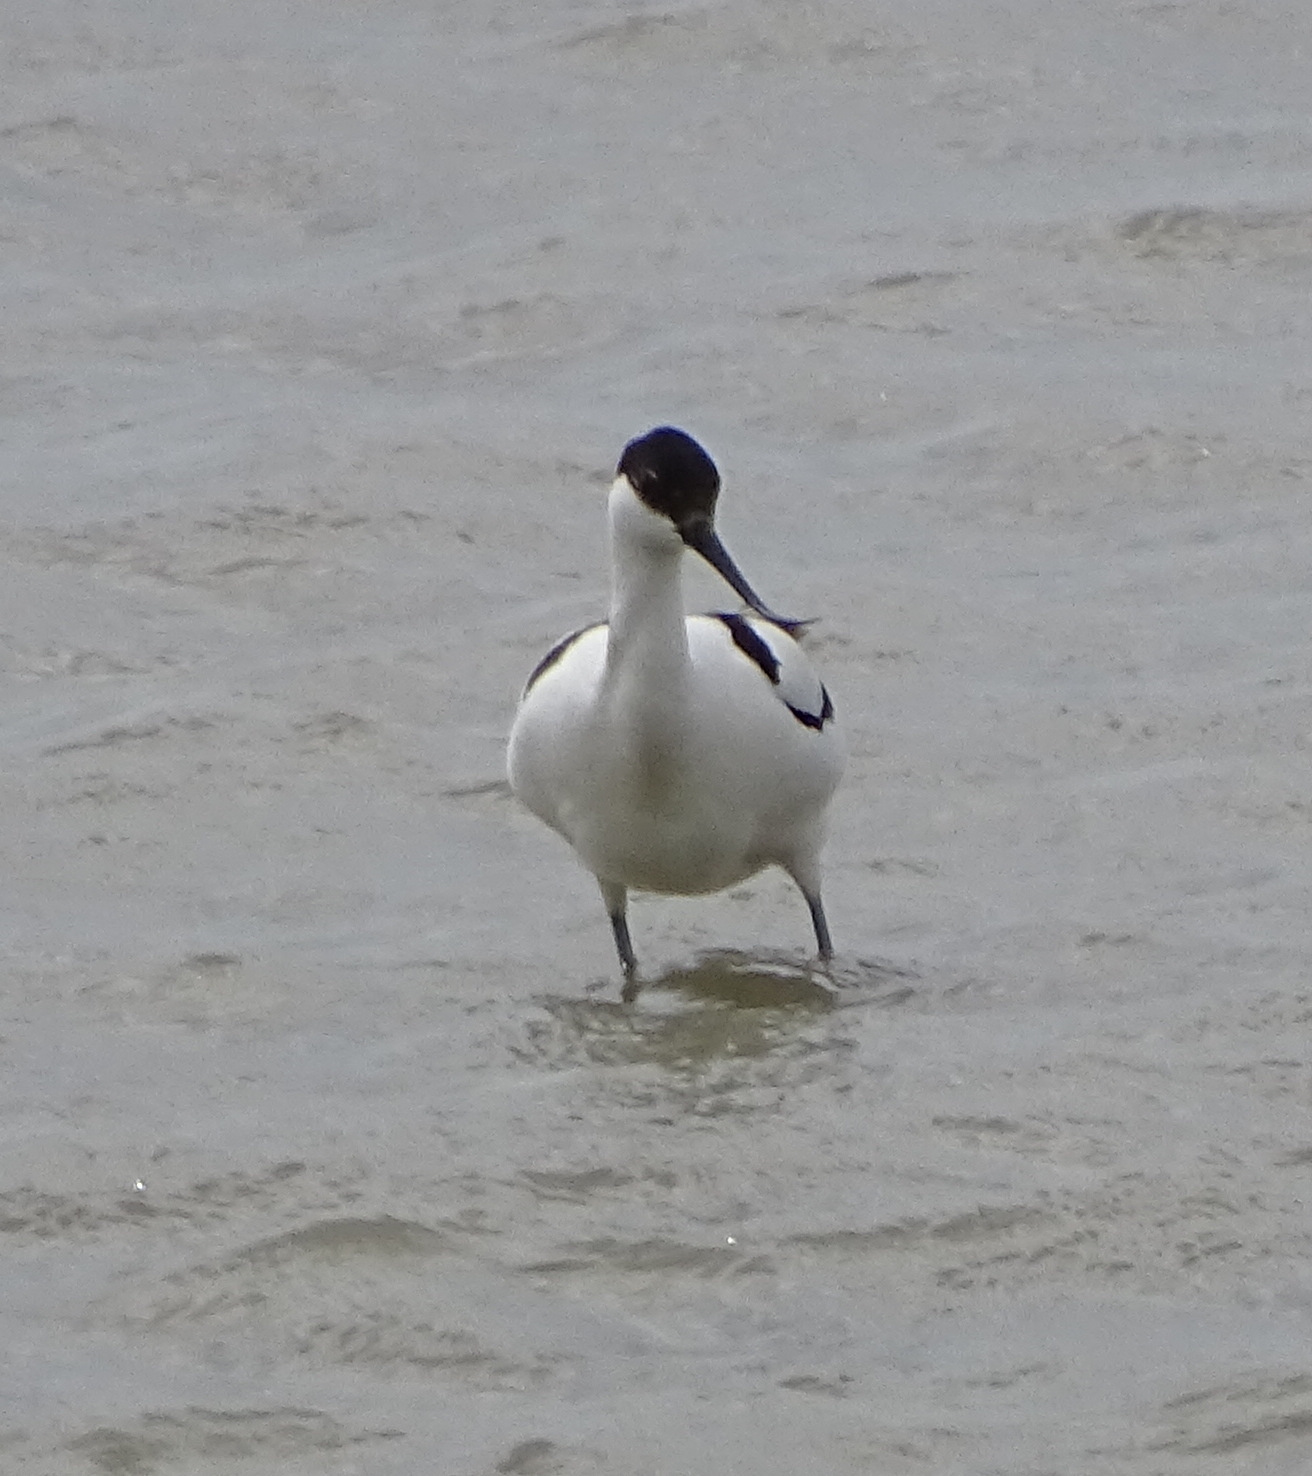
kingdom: Animalia
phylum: Chordata
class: Aves
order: Charadriiformes
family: Recurvirostridae
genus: Recurvirostra
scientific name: Recurvirostra avosetta
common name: Pied avocet
